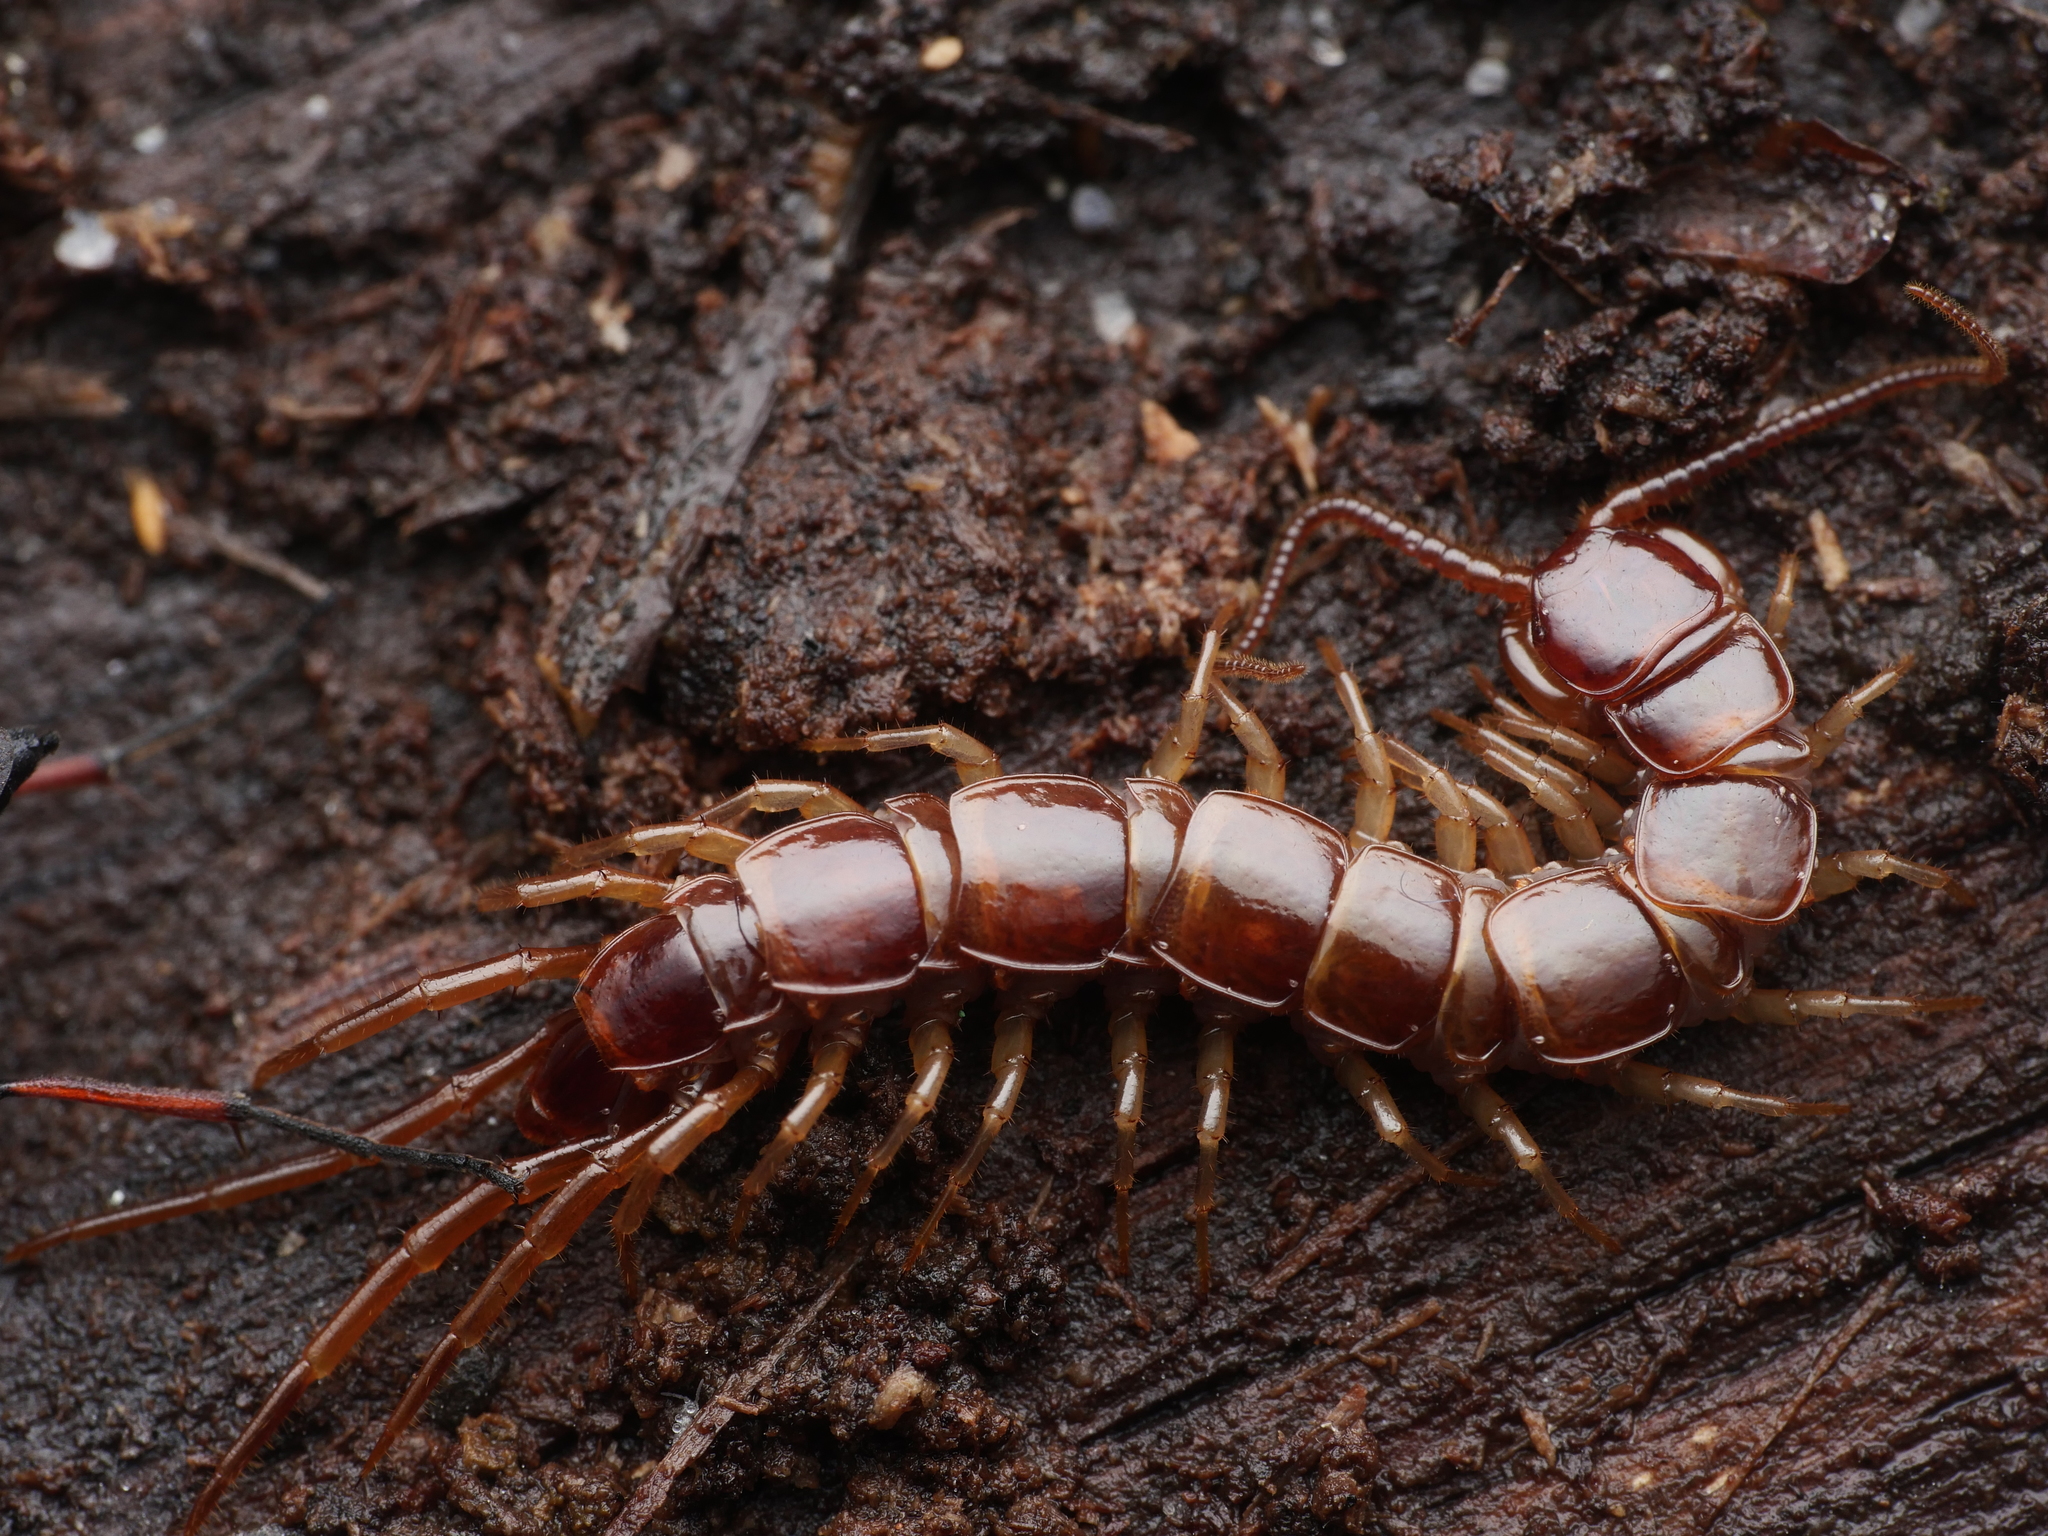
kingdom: Animalia
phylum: Arthropoda
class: Chilopoda
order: Lithobiomorpha
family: Lithobiidae
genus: Lithobius
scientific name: Lithobius forficatus
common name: Centipede
